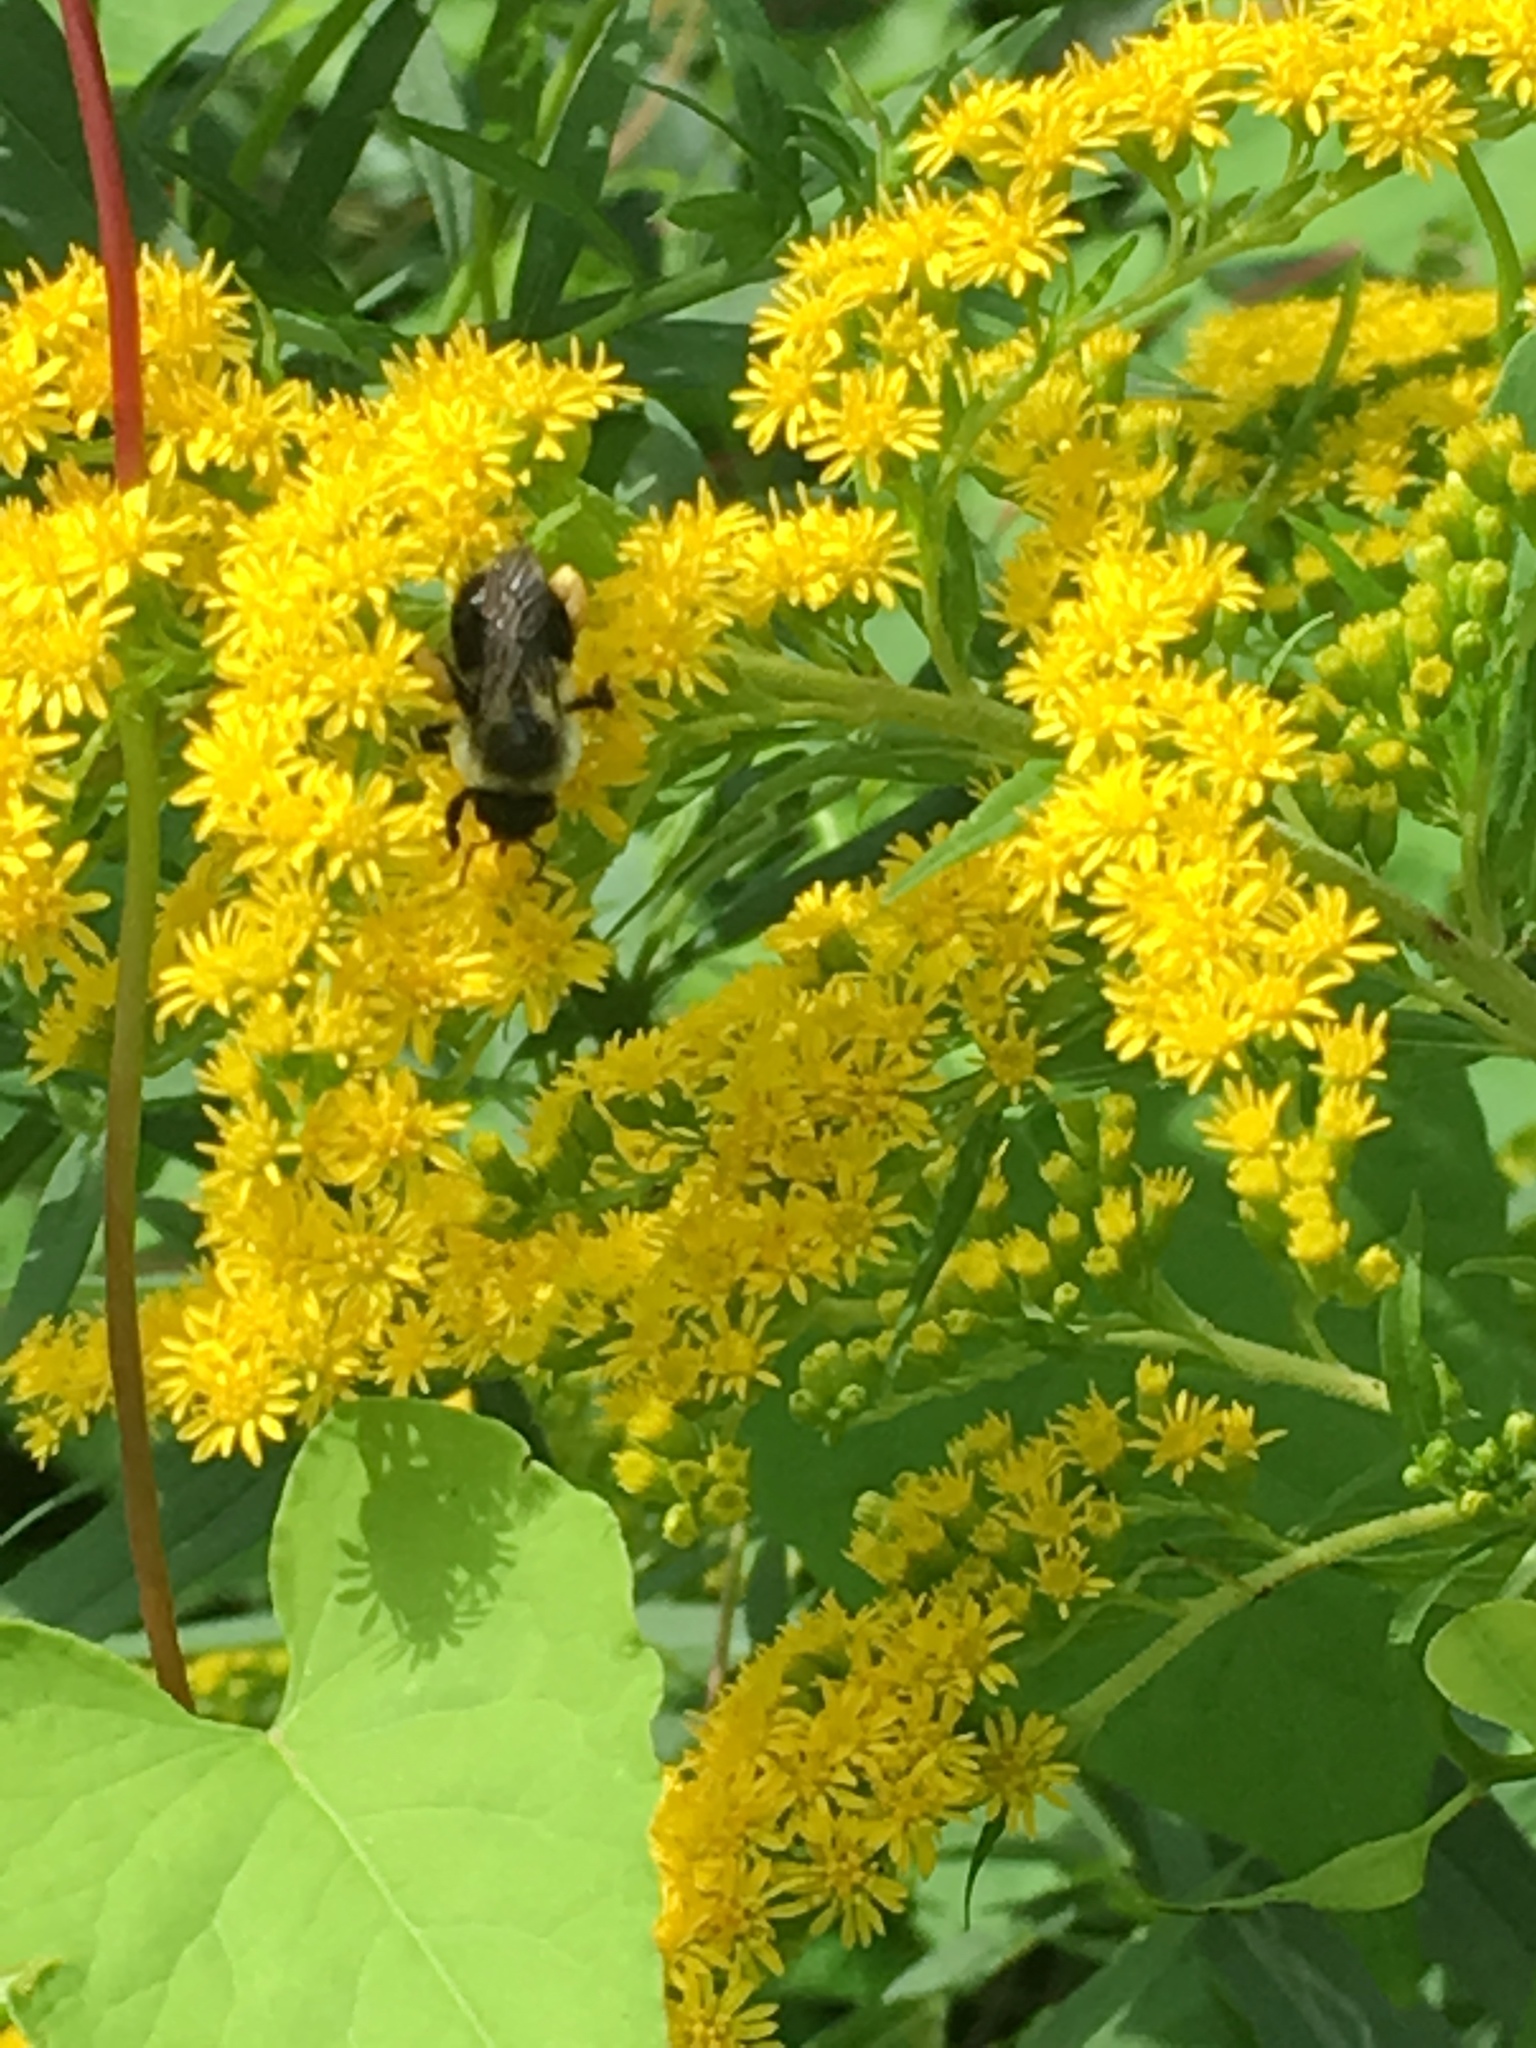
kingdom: Animalia
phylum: Arthropoda
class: Insecta
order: Hymenoptera
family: Apidae
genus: Bombus
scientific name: Bombus impatiens
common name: Common eastern bumble bee
